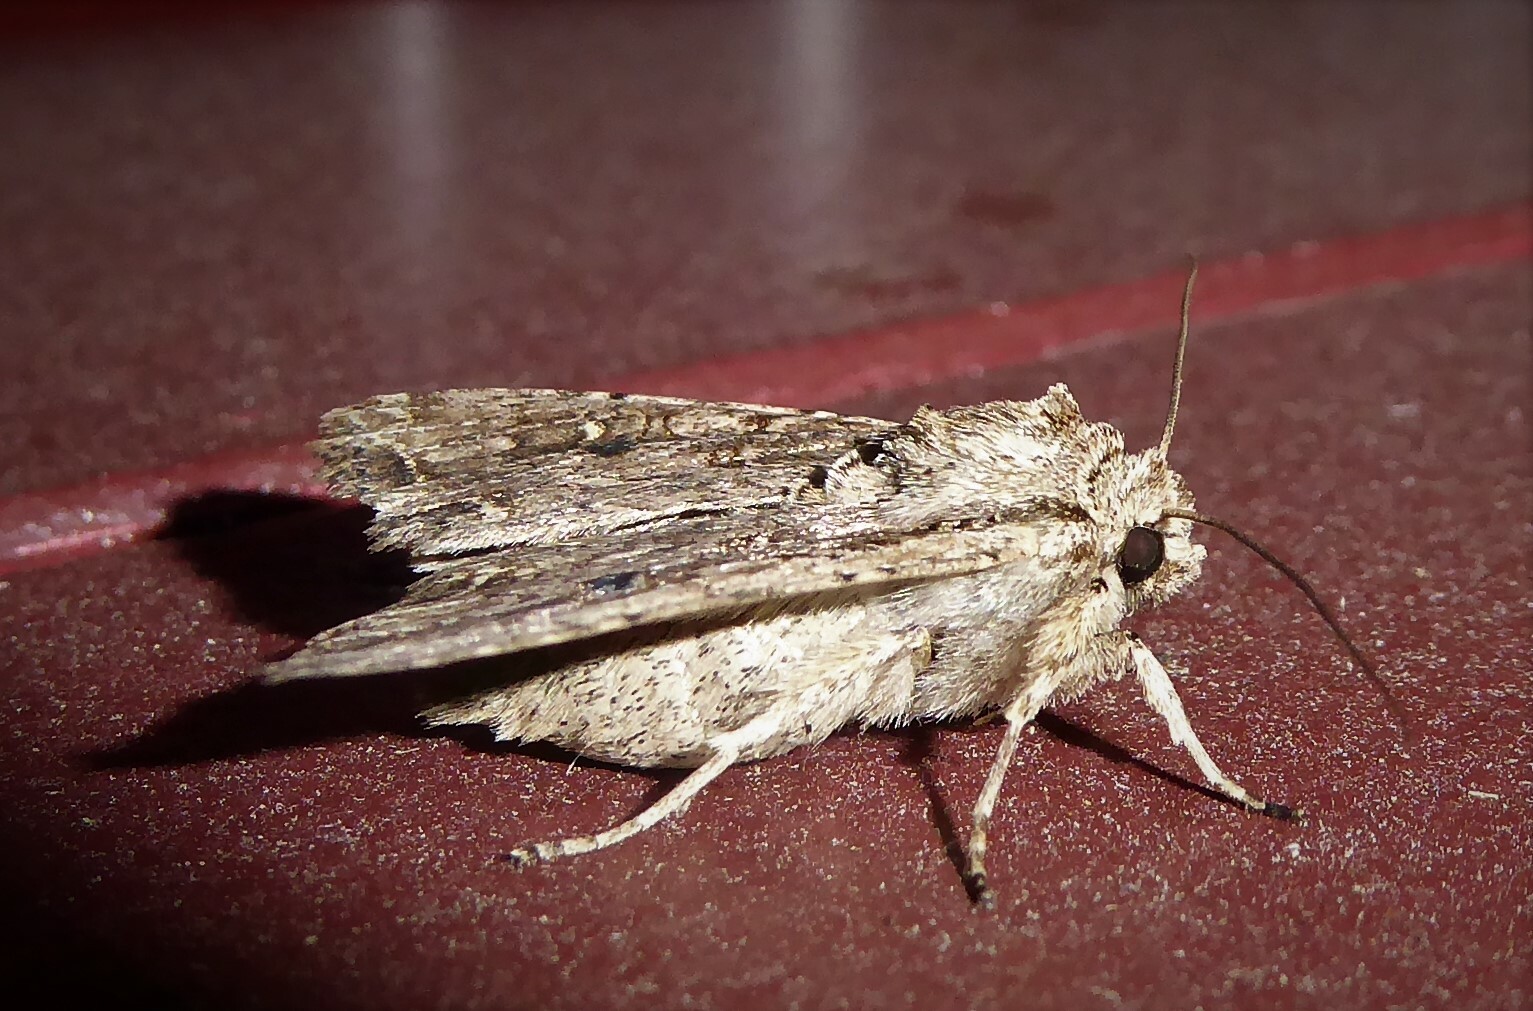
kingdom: Animalia
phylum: Arthropoda
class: Insecta
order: Lepidoptera
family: Noctuidae
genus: Ichneutica
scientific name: Ichneutica lignana
